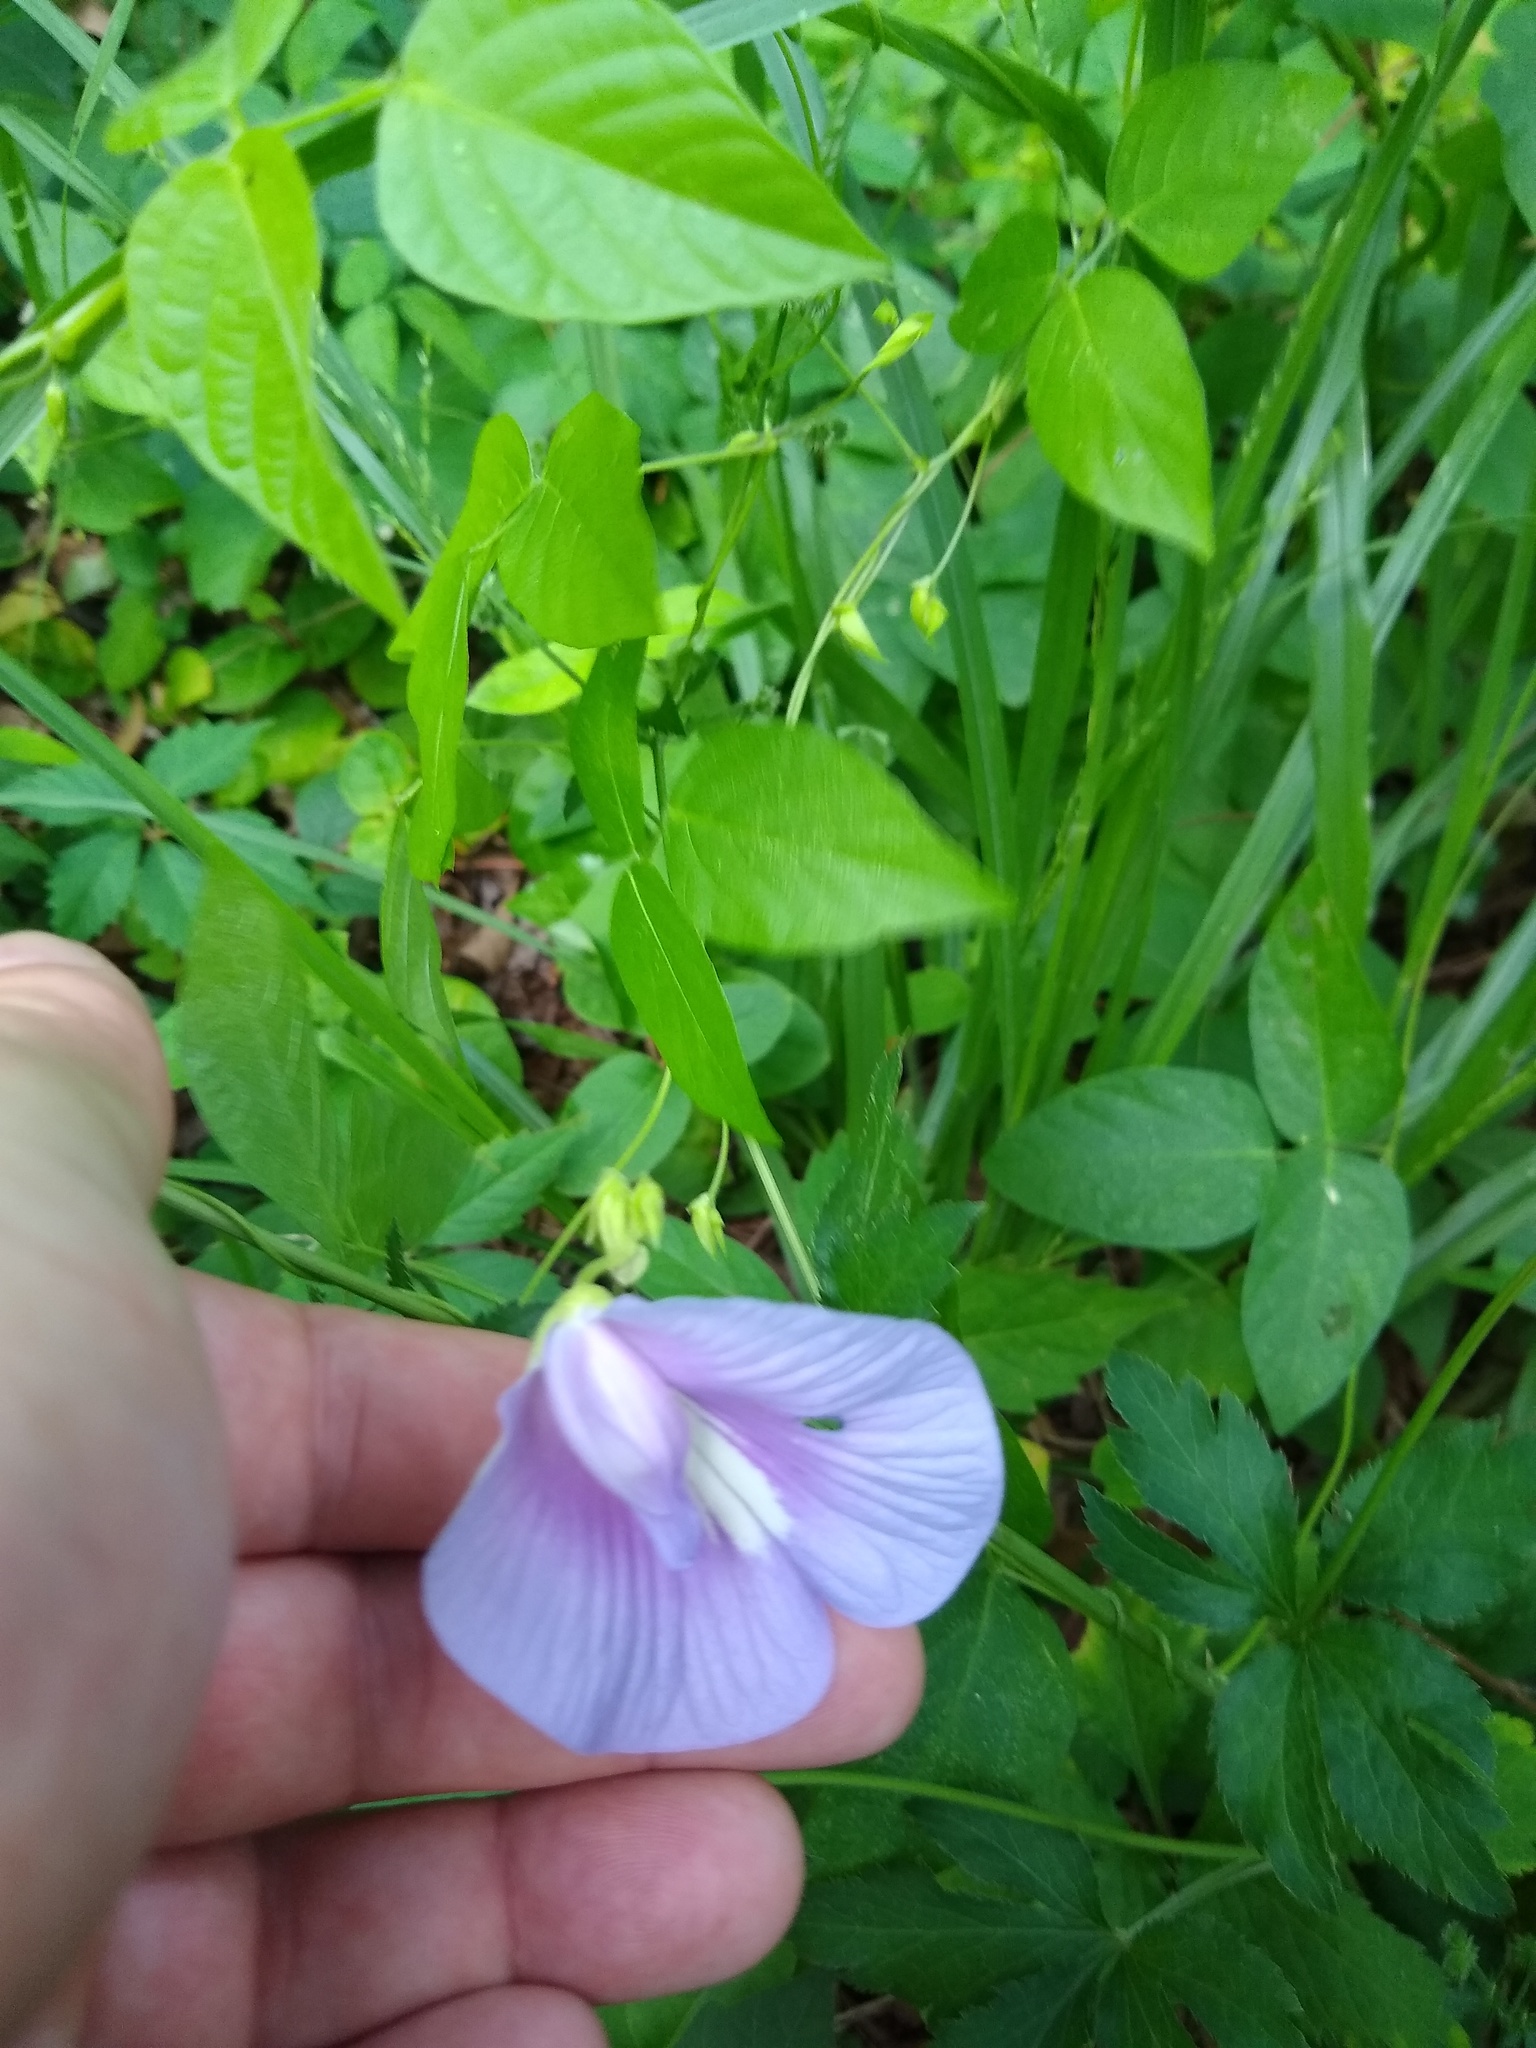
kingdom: Plantae
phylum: Tracheophyta
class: Magnoliopsida
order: Fabales
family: Fabaceae
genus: Centrosema
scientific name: Centrosema virginianum
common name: Butterfly-pea
